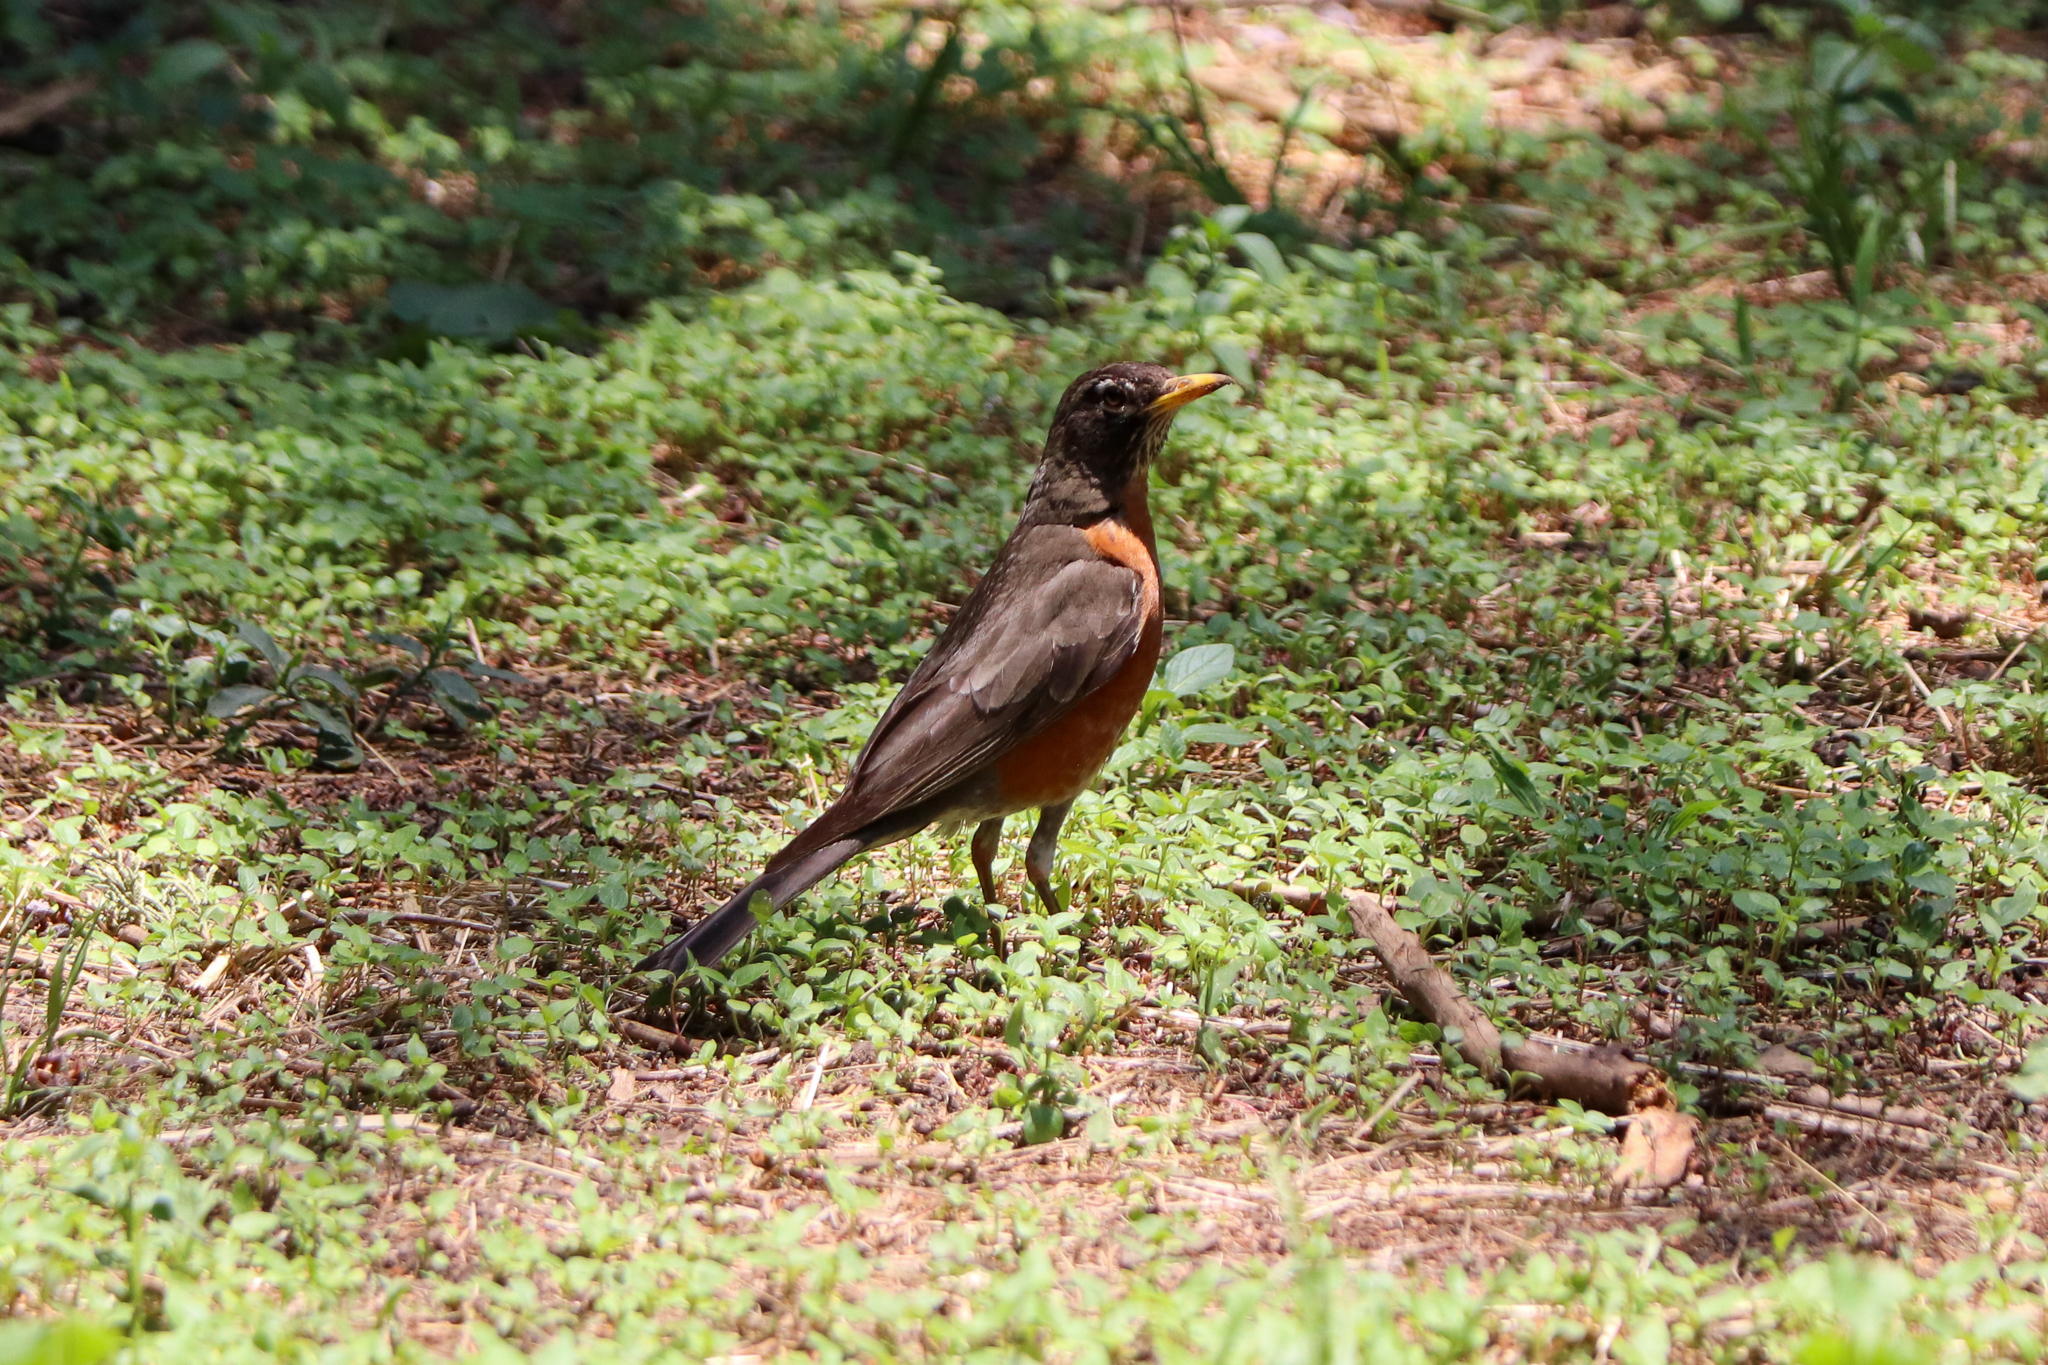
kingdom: Animalia
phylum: Chordata
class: Aves
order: Passeriformes
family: Turdidae
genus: Turdus
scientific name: Turdus migratorius
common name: American robin
